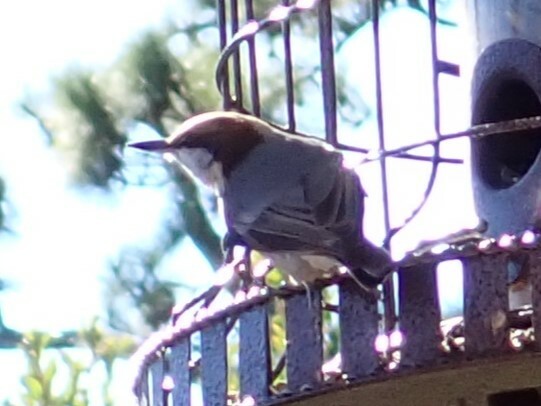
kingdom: Animalia
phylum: Chordata
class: Aves
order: Passeriformes
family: Sittidae
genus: Sitta
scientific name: Sitta pusilla
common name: Brown-headed nuthatch
